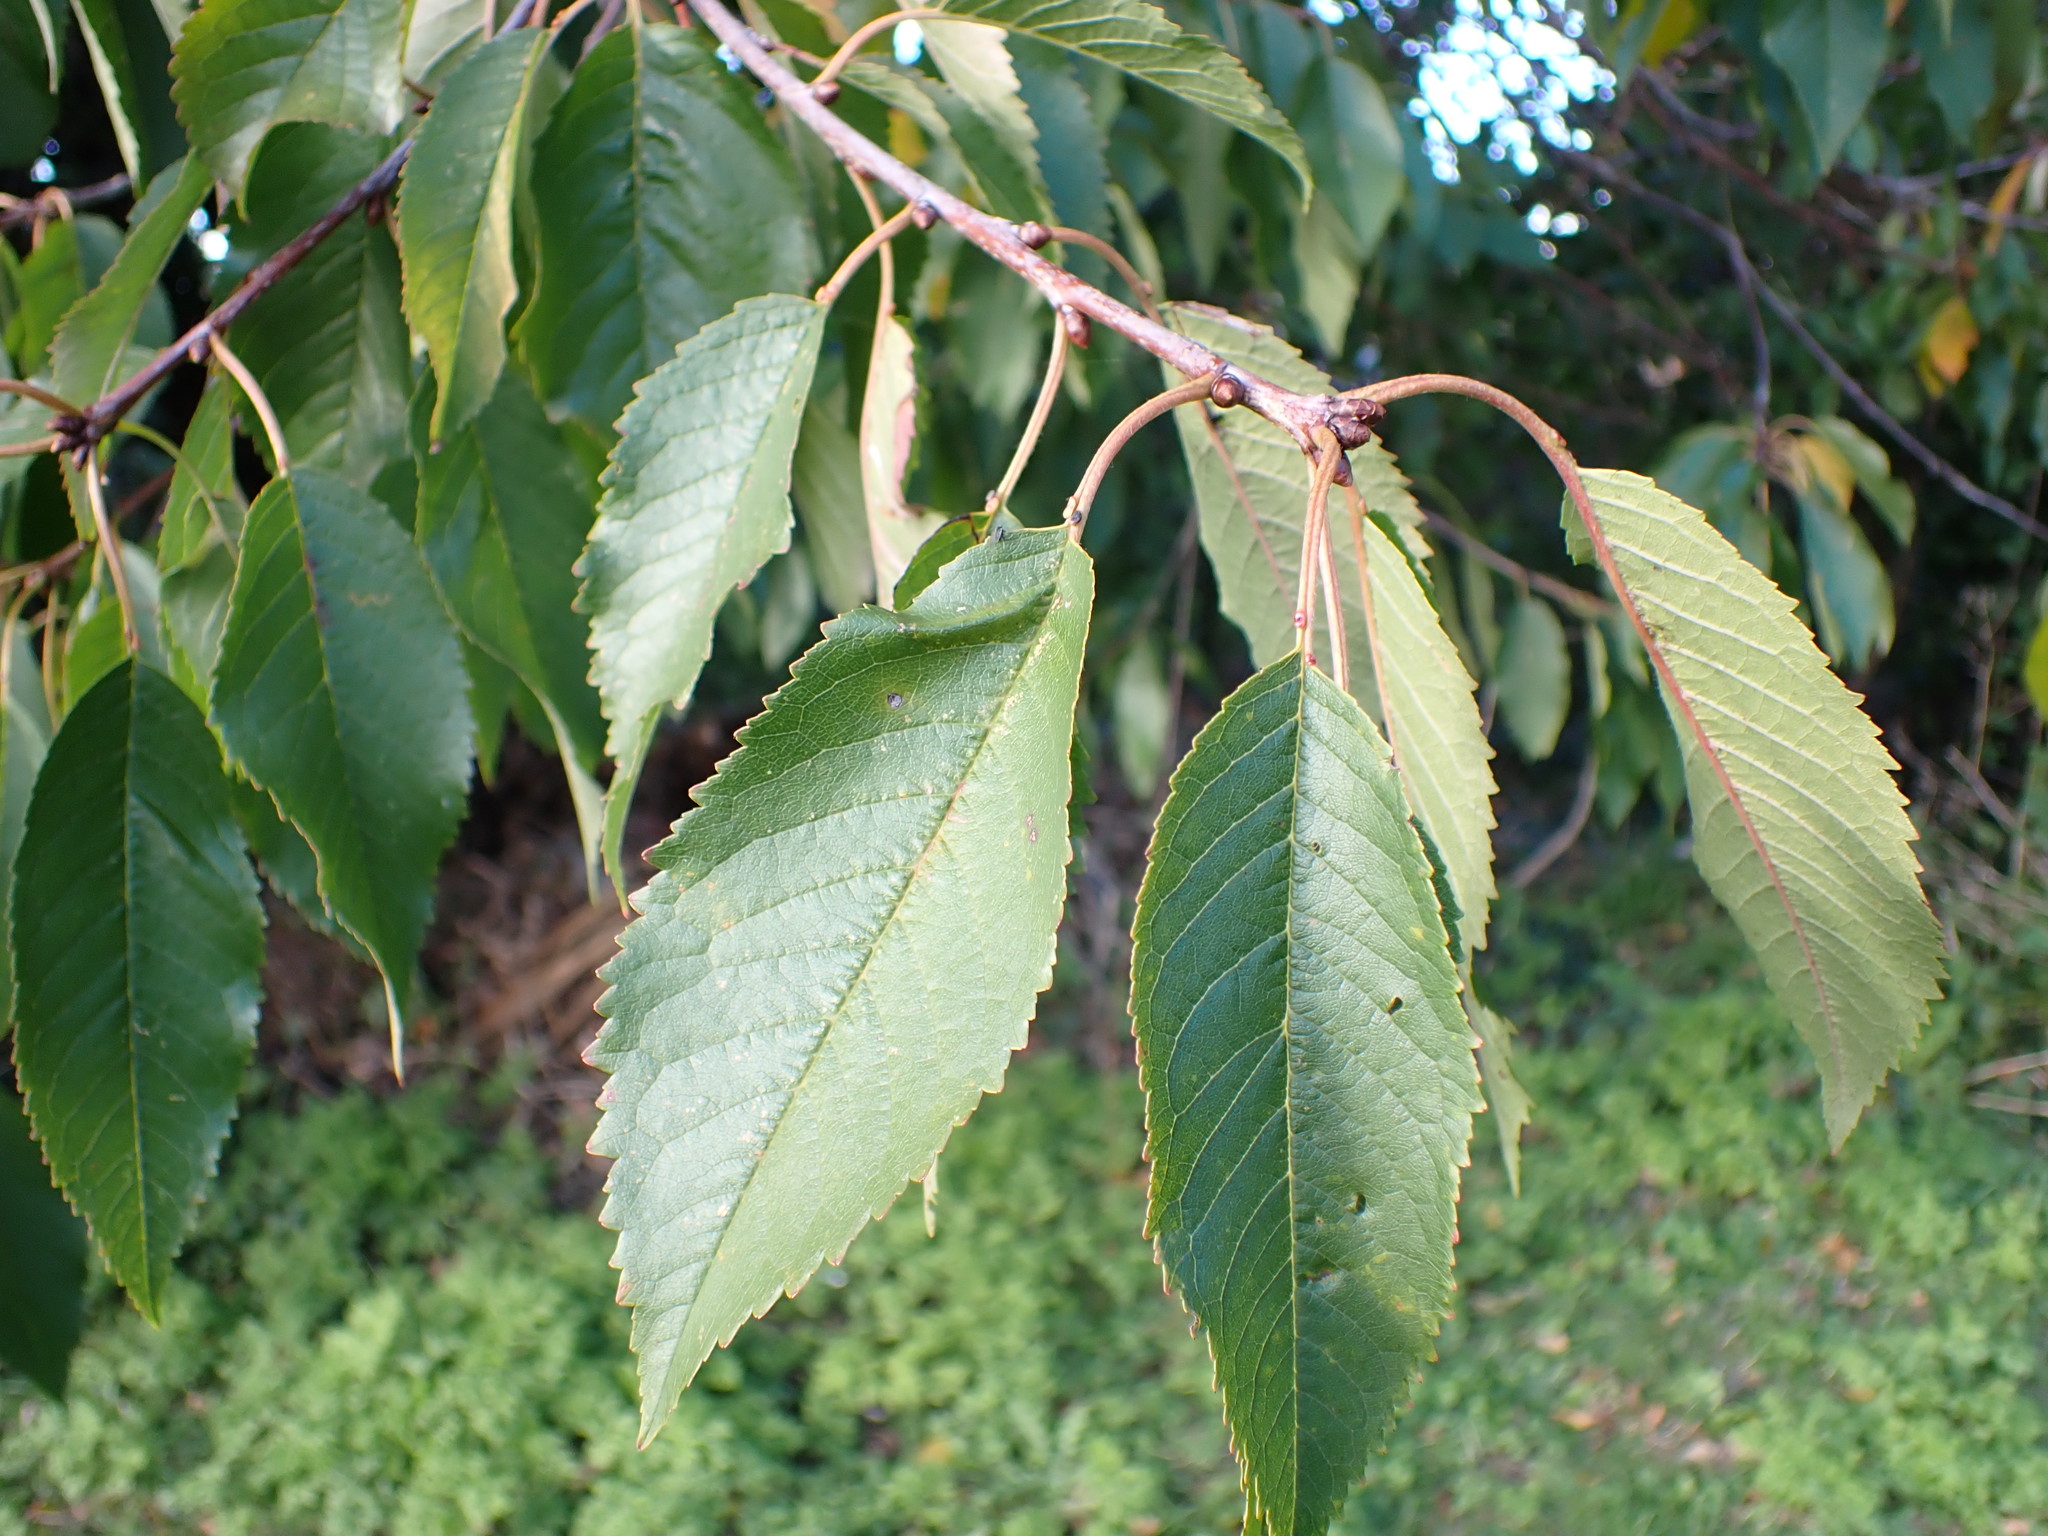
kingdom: Plantae
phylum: Tracheophyta
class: Magnoliopsida
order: Rosales
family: Rosaceae
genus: Prunus
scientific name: Prunus avium
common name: Sweet cherry
